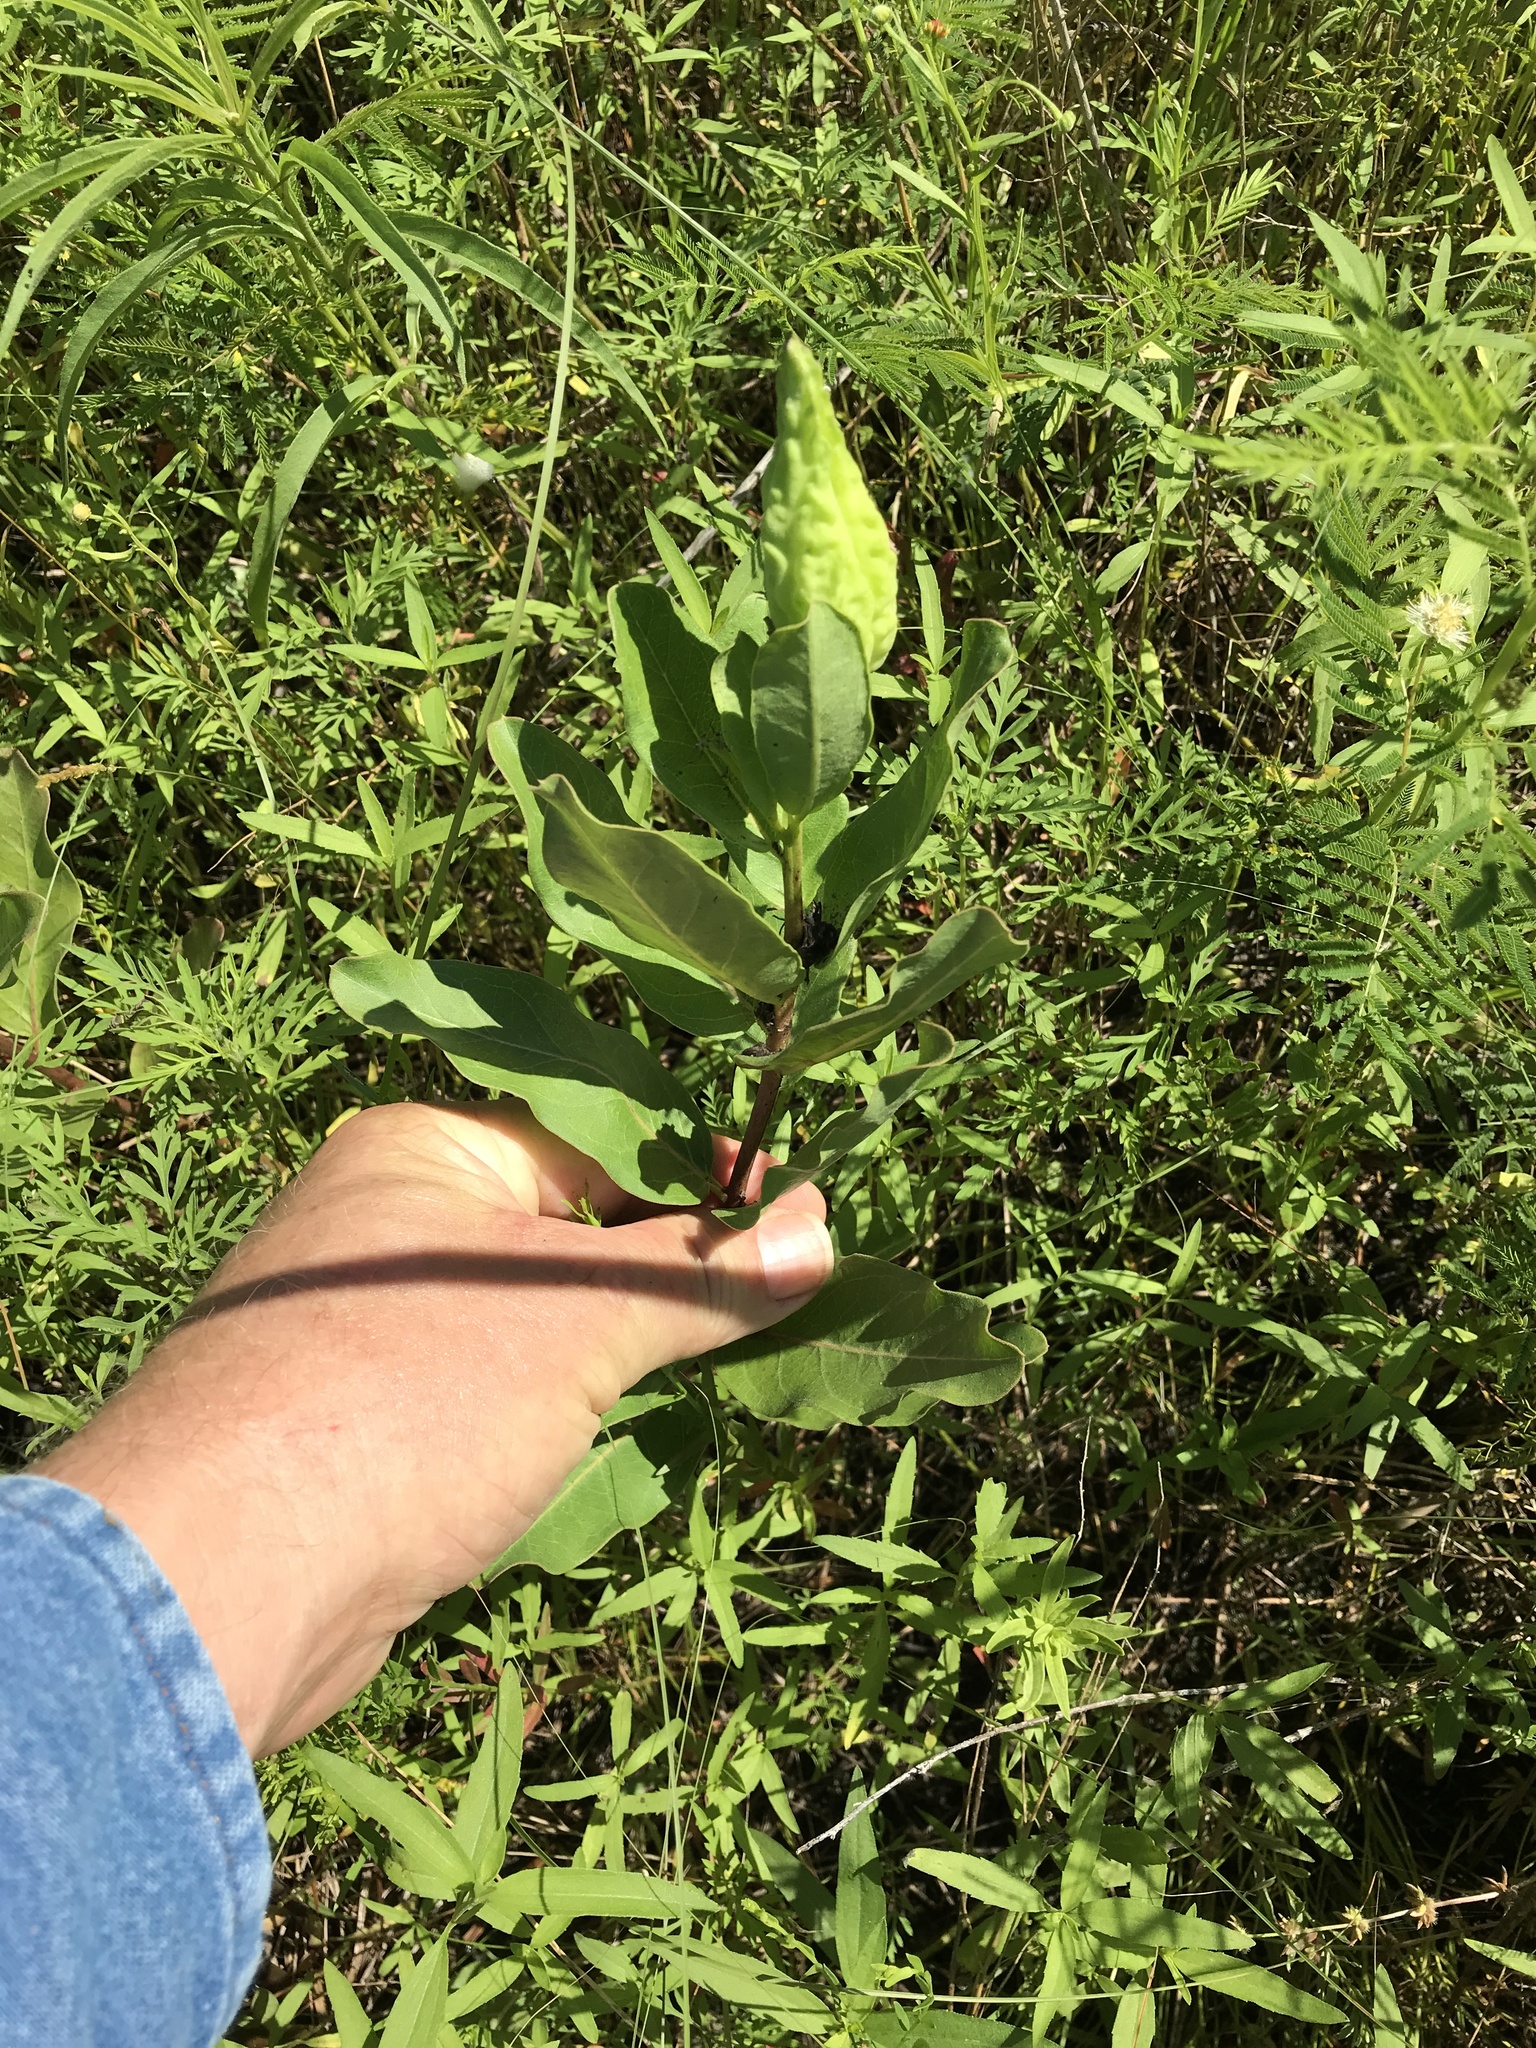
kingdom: Plantae
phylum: Tracheophyta
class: Magnoliopsida
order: Gentianales
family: Apocynaceae
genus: Asclepias
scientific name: Asclepias viridis
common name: Antelope-horns
